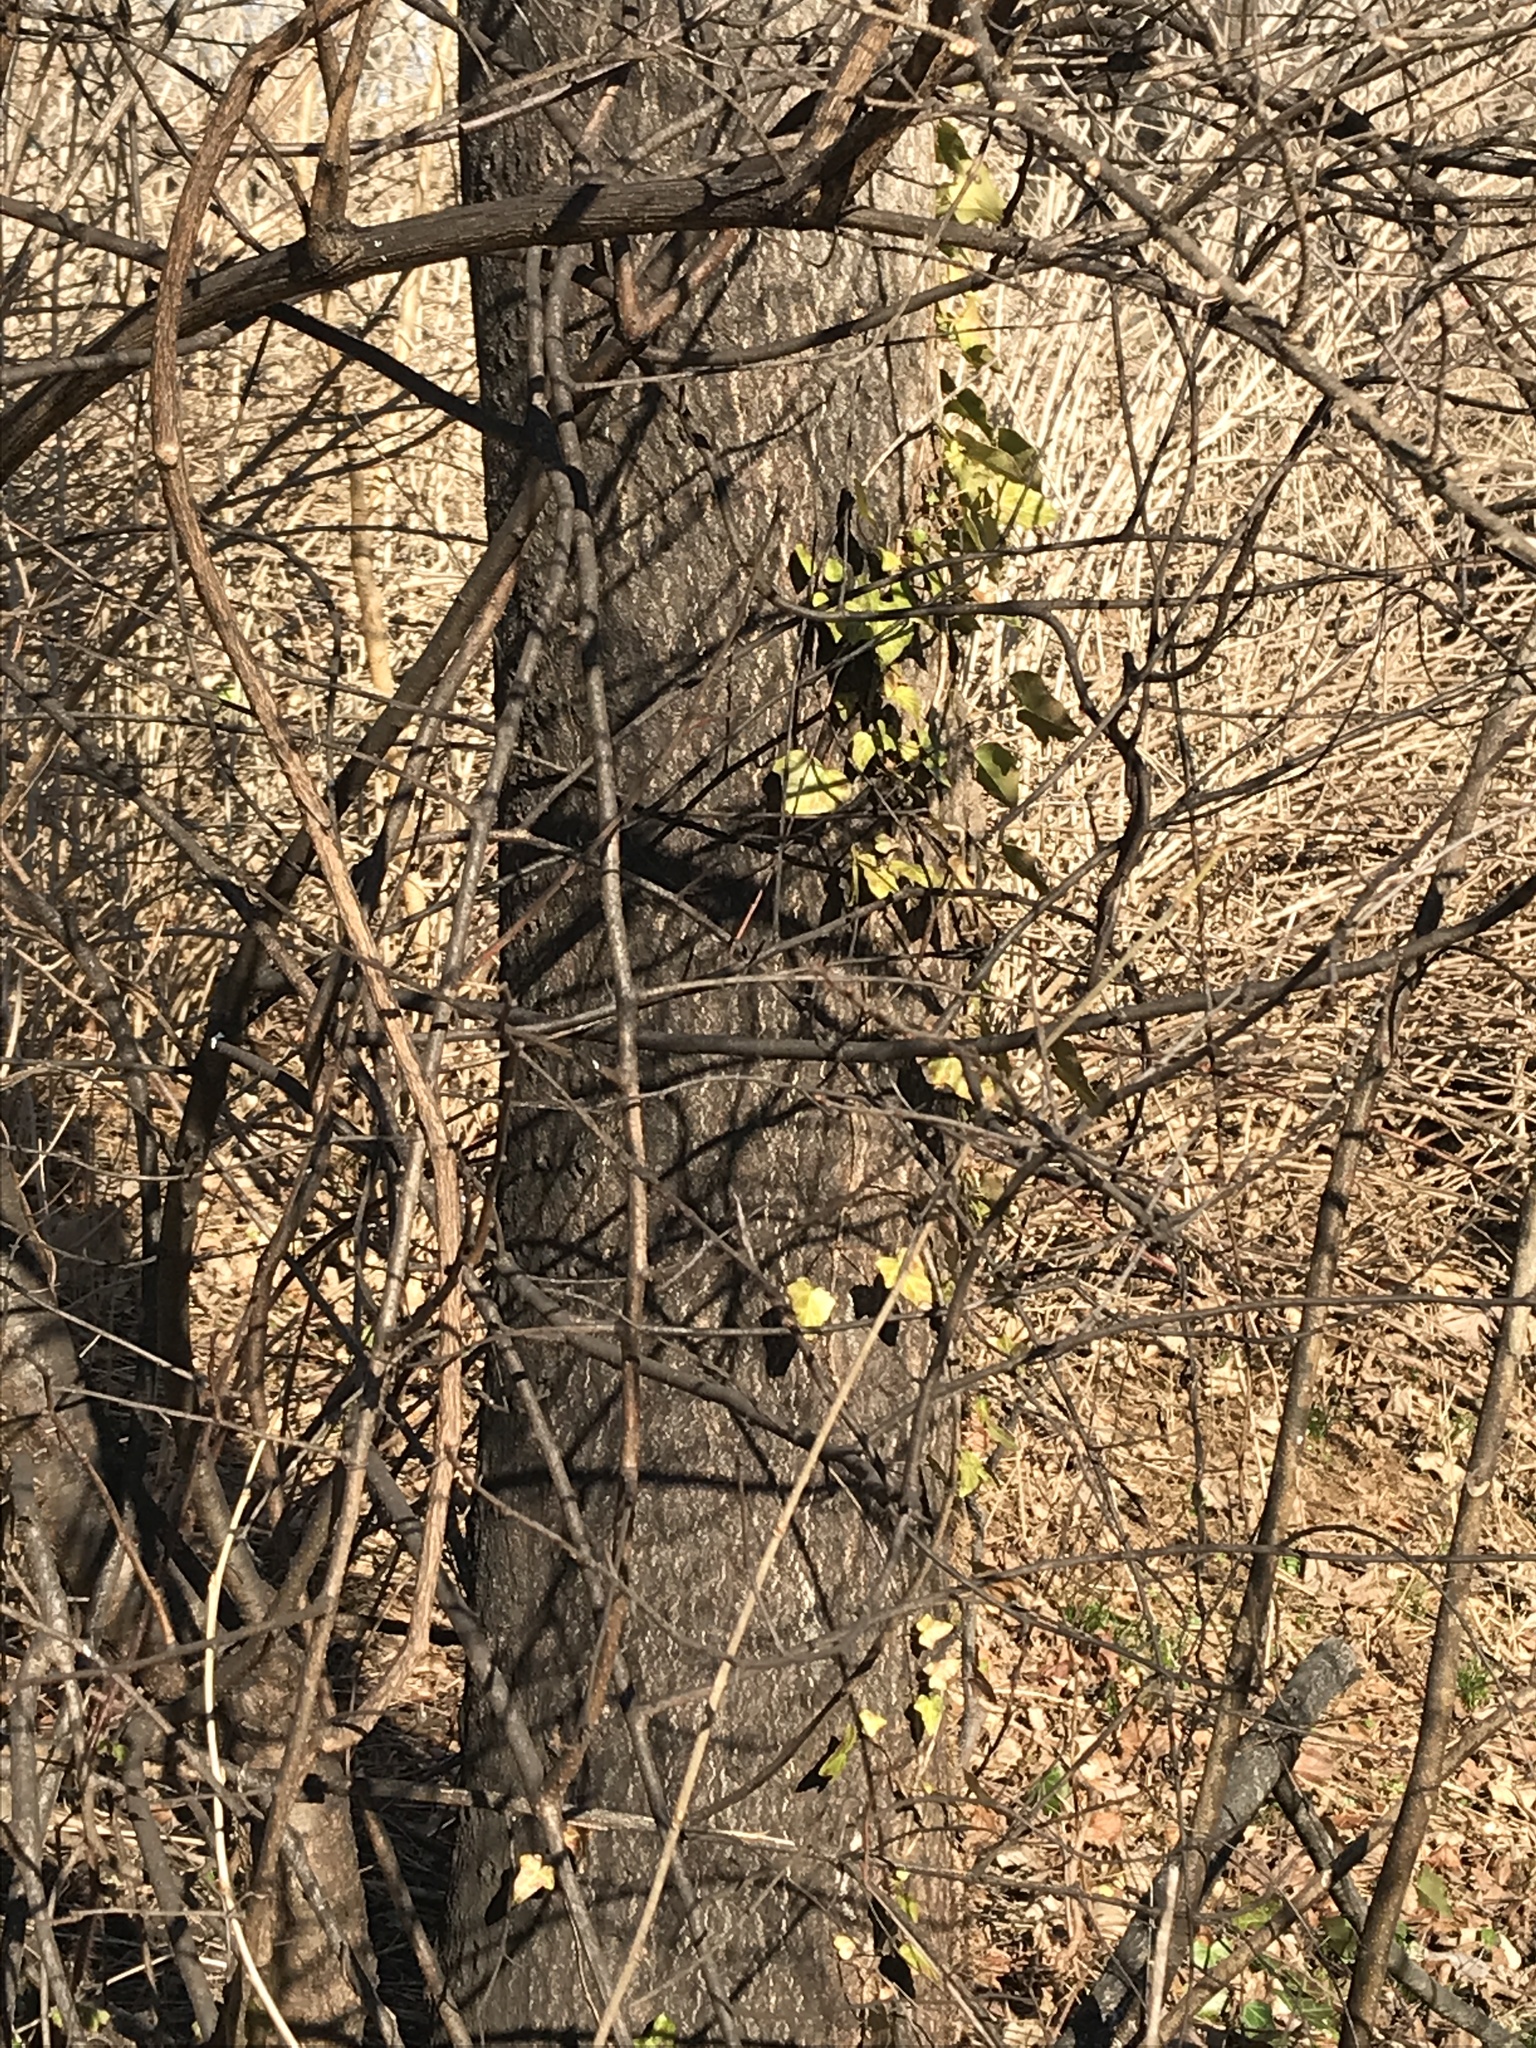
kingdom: Plantae
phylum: Tracheophyta
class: Magnoliopsida
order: Sapindales
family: Simaroubaceae
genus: Ailanthus
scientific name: Ailanthus altissima
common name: Tree-of-heaven
